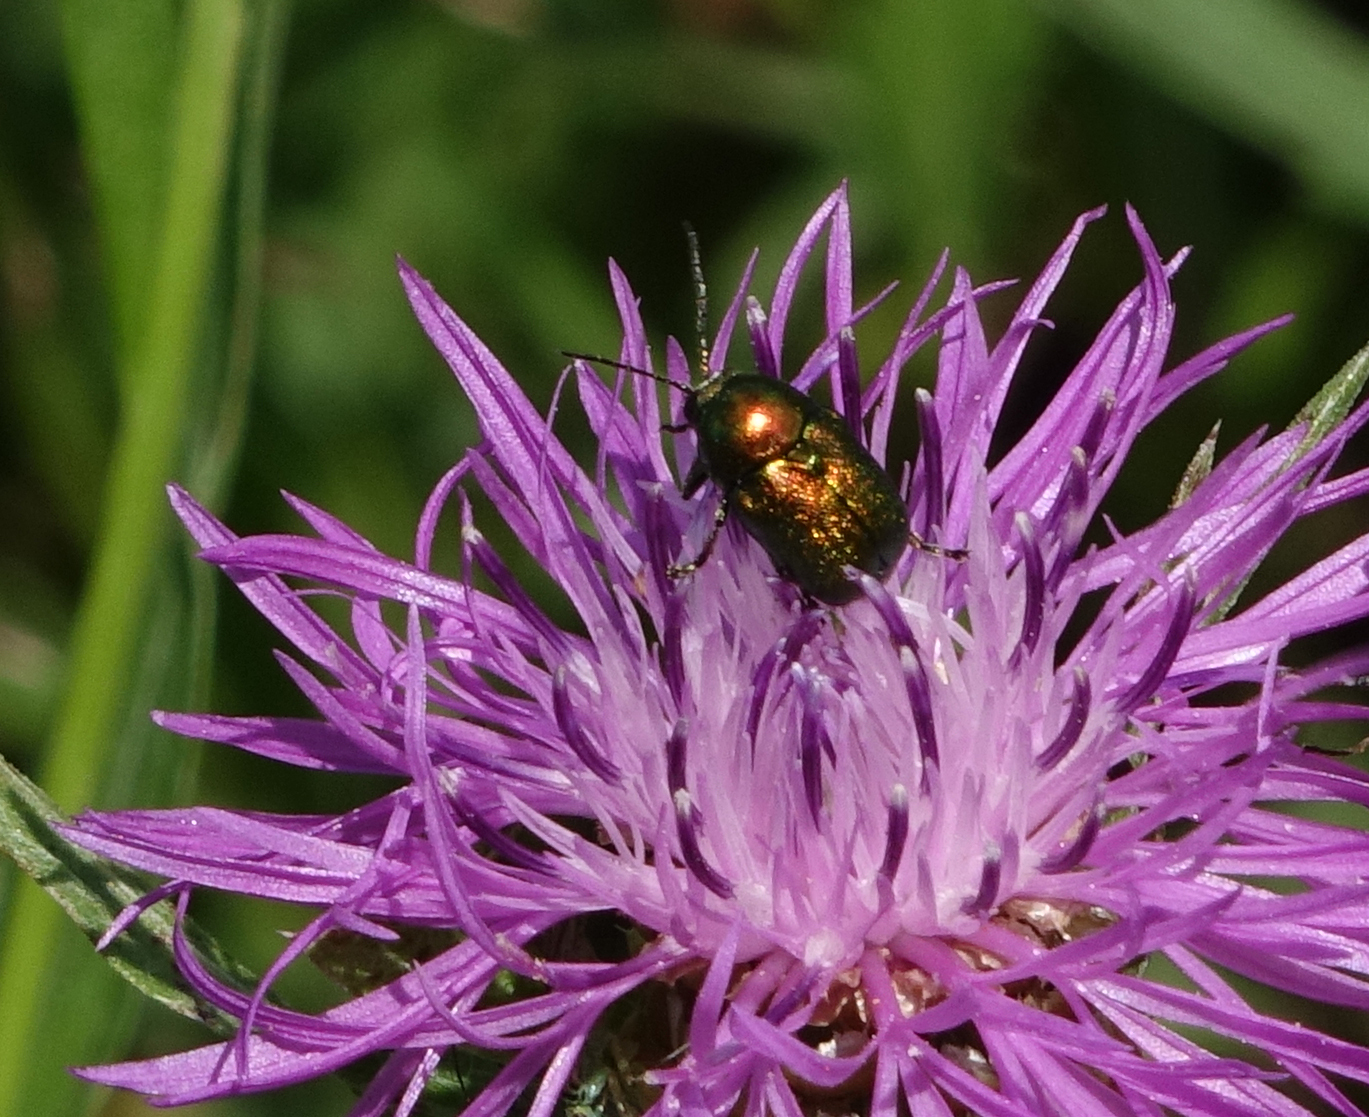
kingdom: Plantae
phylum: Tracheophyta
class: Magnoliopsida
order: Asterales
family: Asteraceae
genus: Centaurea
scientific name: Centaurea jacea
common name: Brown knapweed
